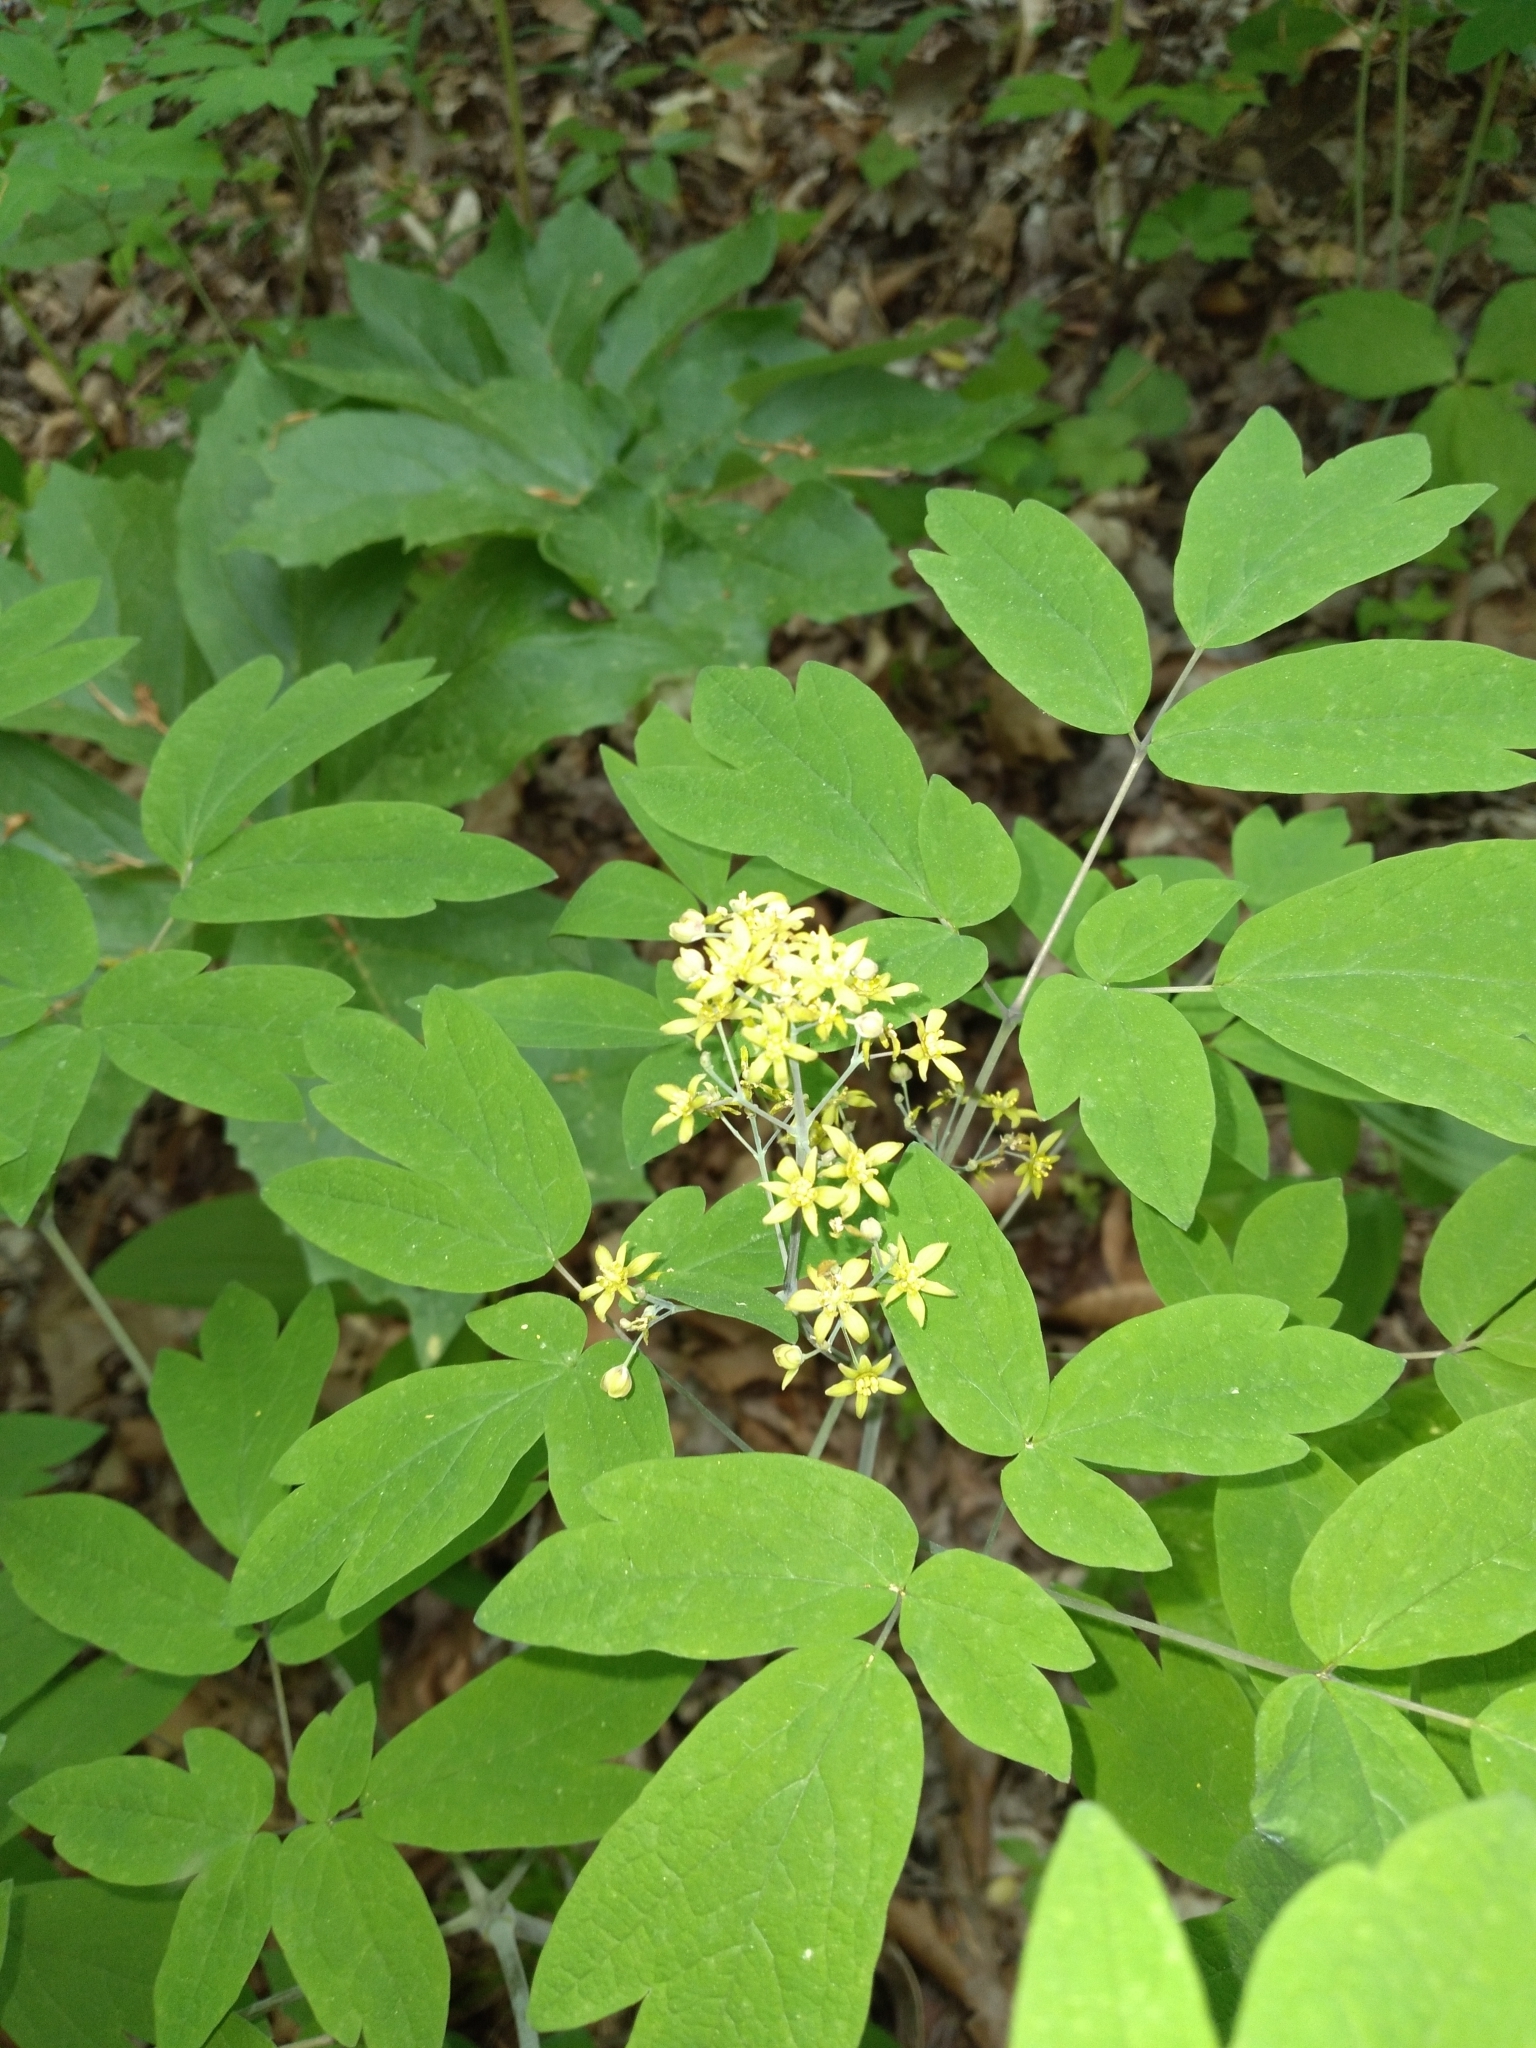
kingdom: Plantae
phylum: Tracheophyta
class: Magnoliopsida
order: Ranunculales
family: Berberidaceae
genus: Caulophyllum
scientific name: Caulophyllum thalictroides
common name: Blue cohosh
